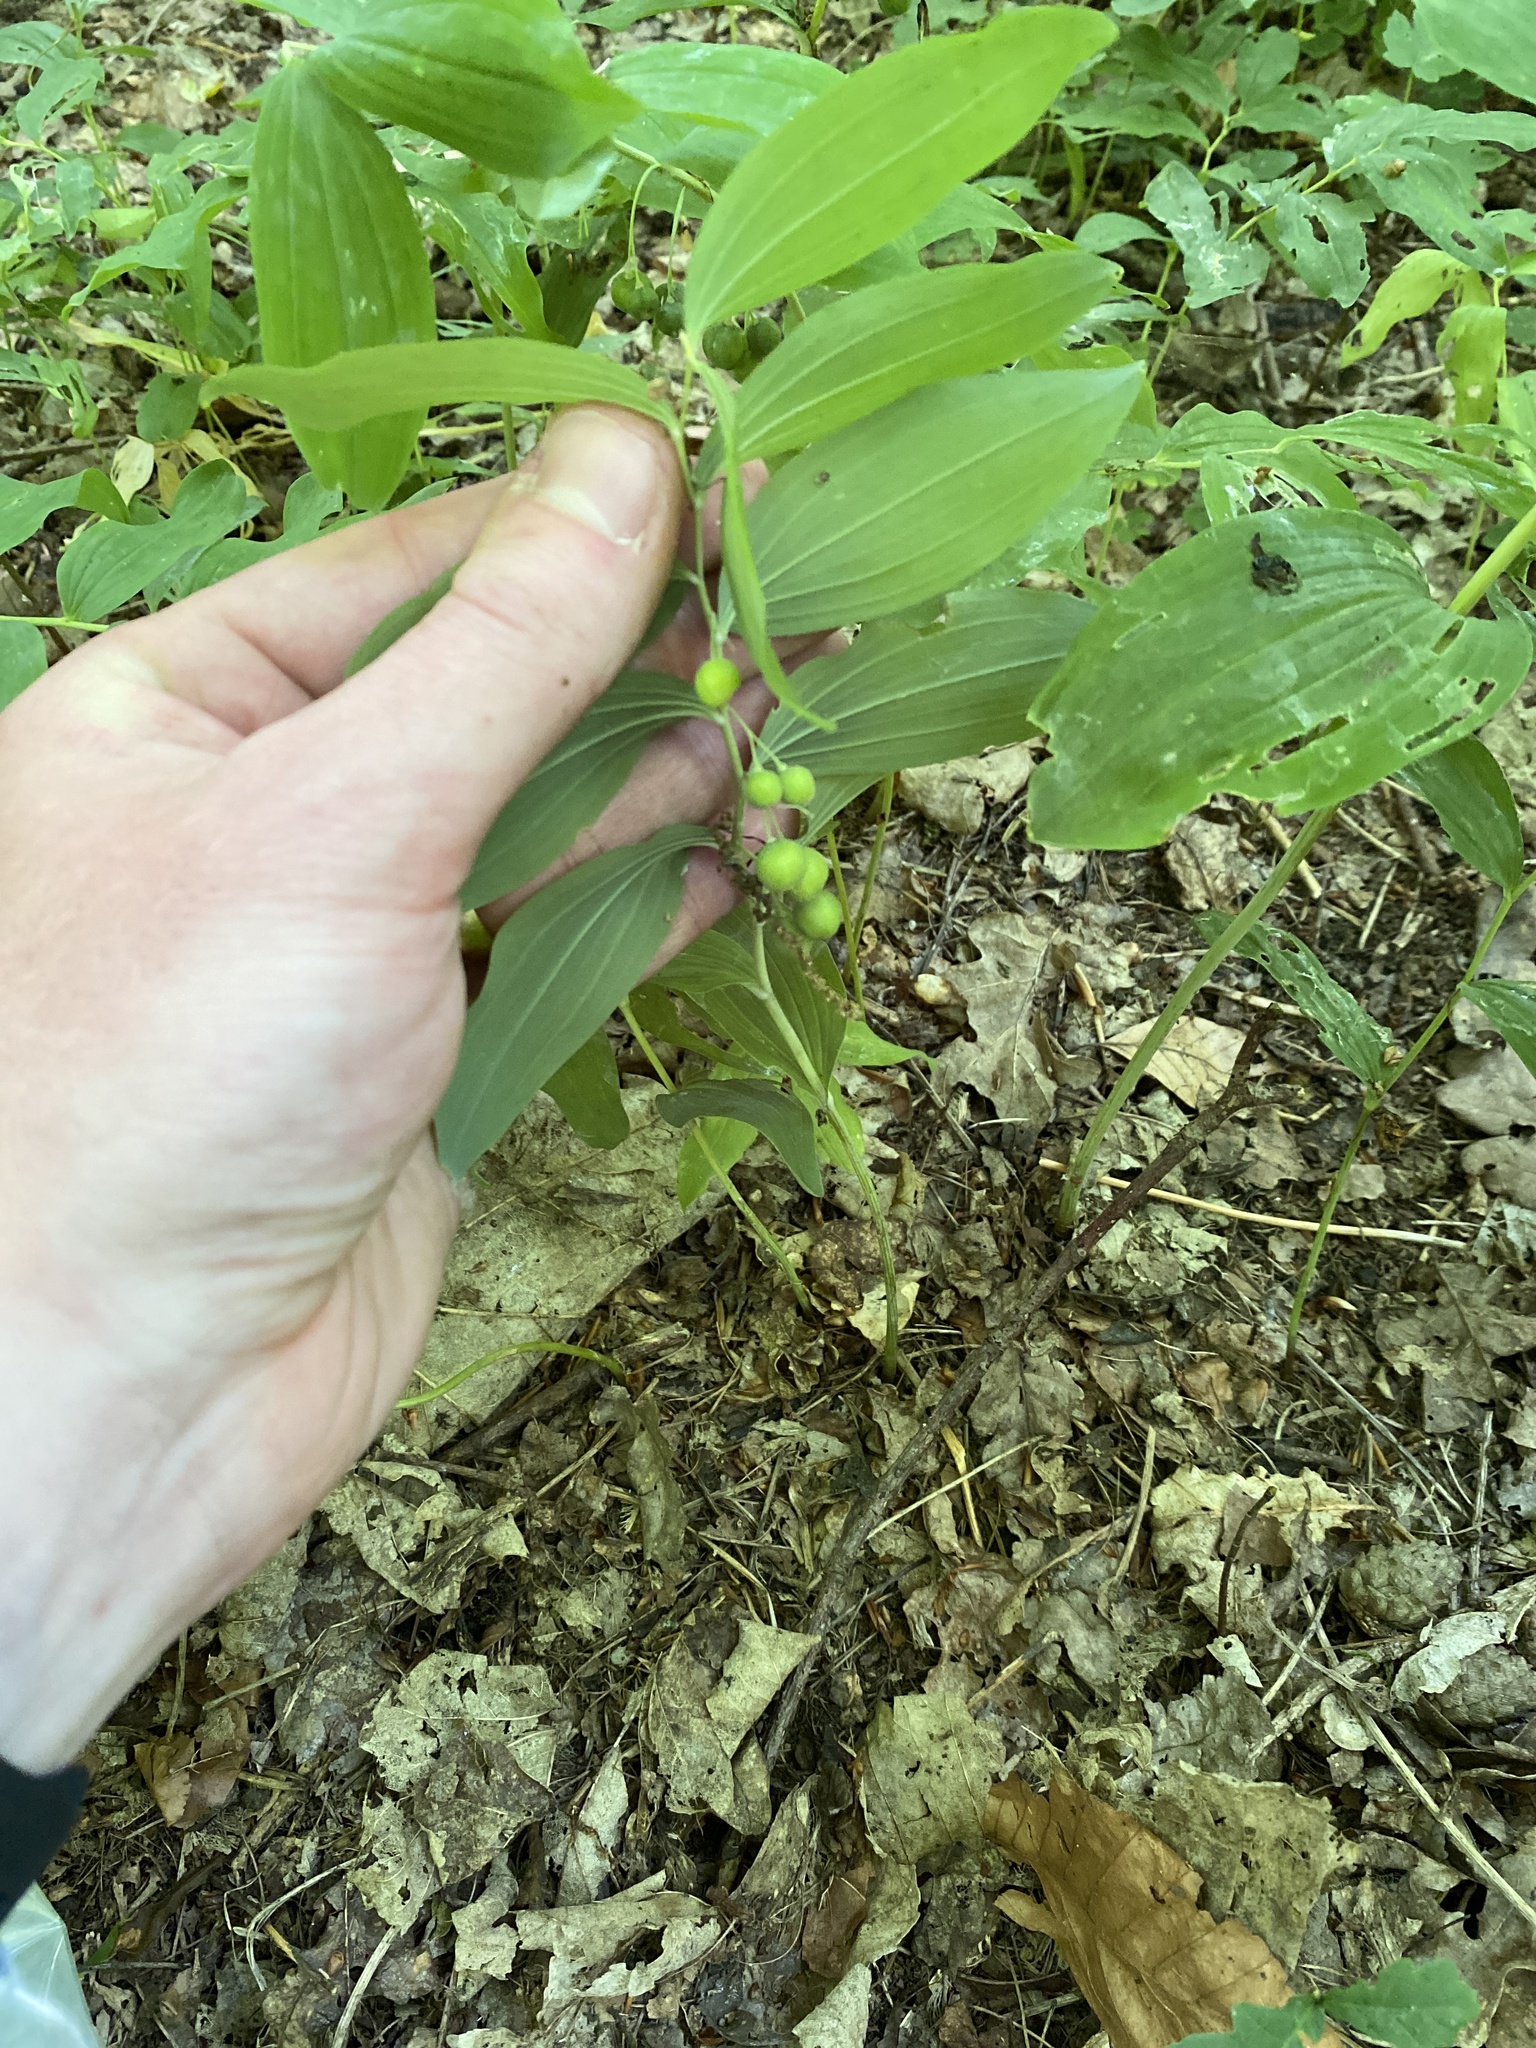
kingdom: Plantae
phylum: Tracheophyta
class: Liliopsida
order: Asparagales
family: Asparagaceae
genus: Polygonatum
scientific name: Polygonatum multiflorum
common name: Solomon's-seal
